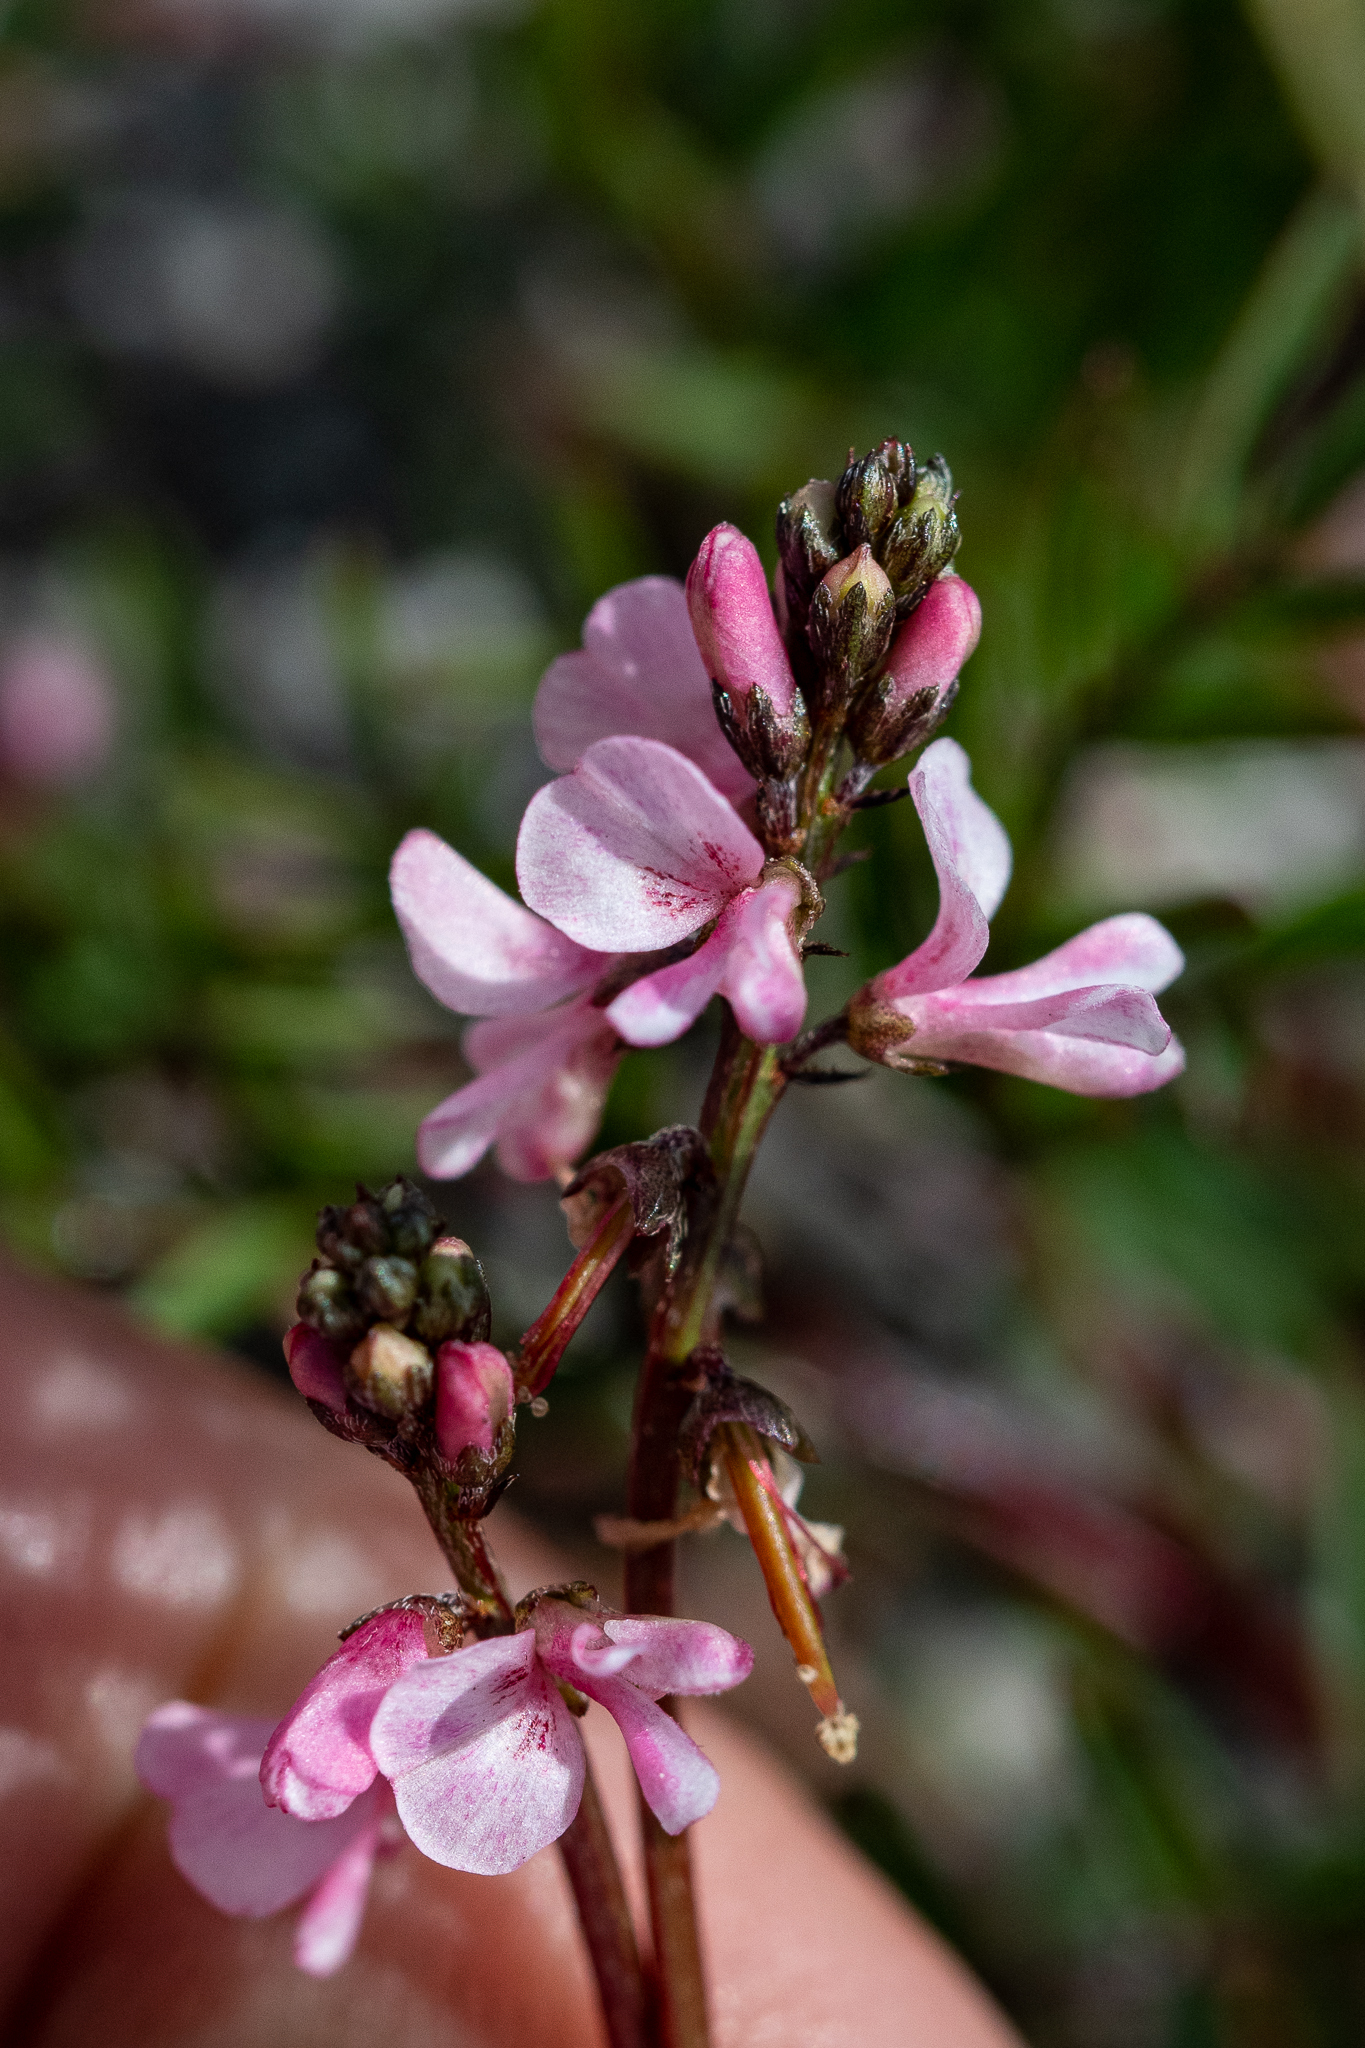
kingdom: Plantae
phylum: Tracheophyta
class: Magnoliopsida
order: Fabales
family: Fabaceae
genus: Indigofera
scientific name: Indigofera
